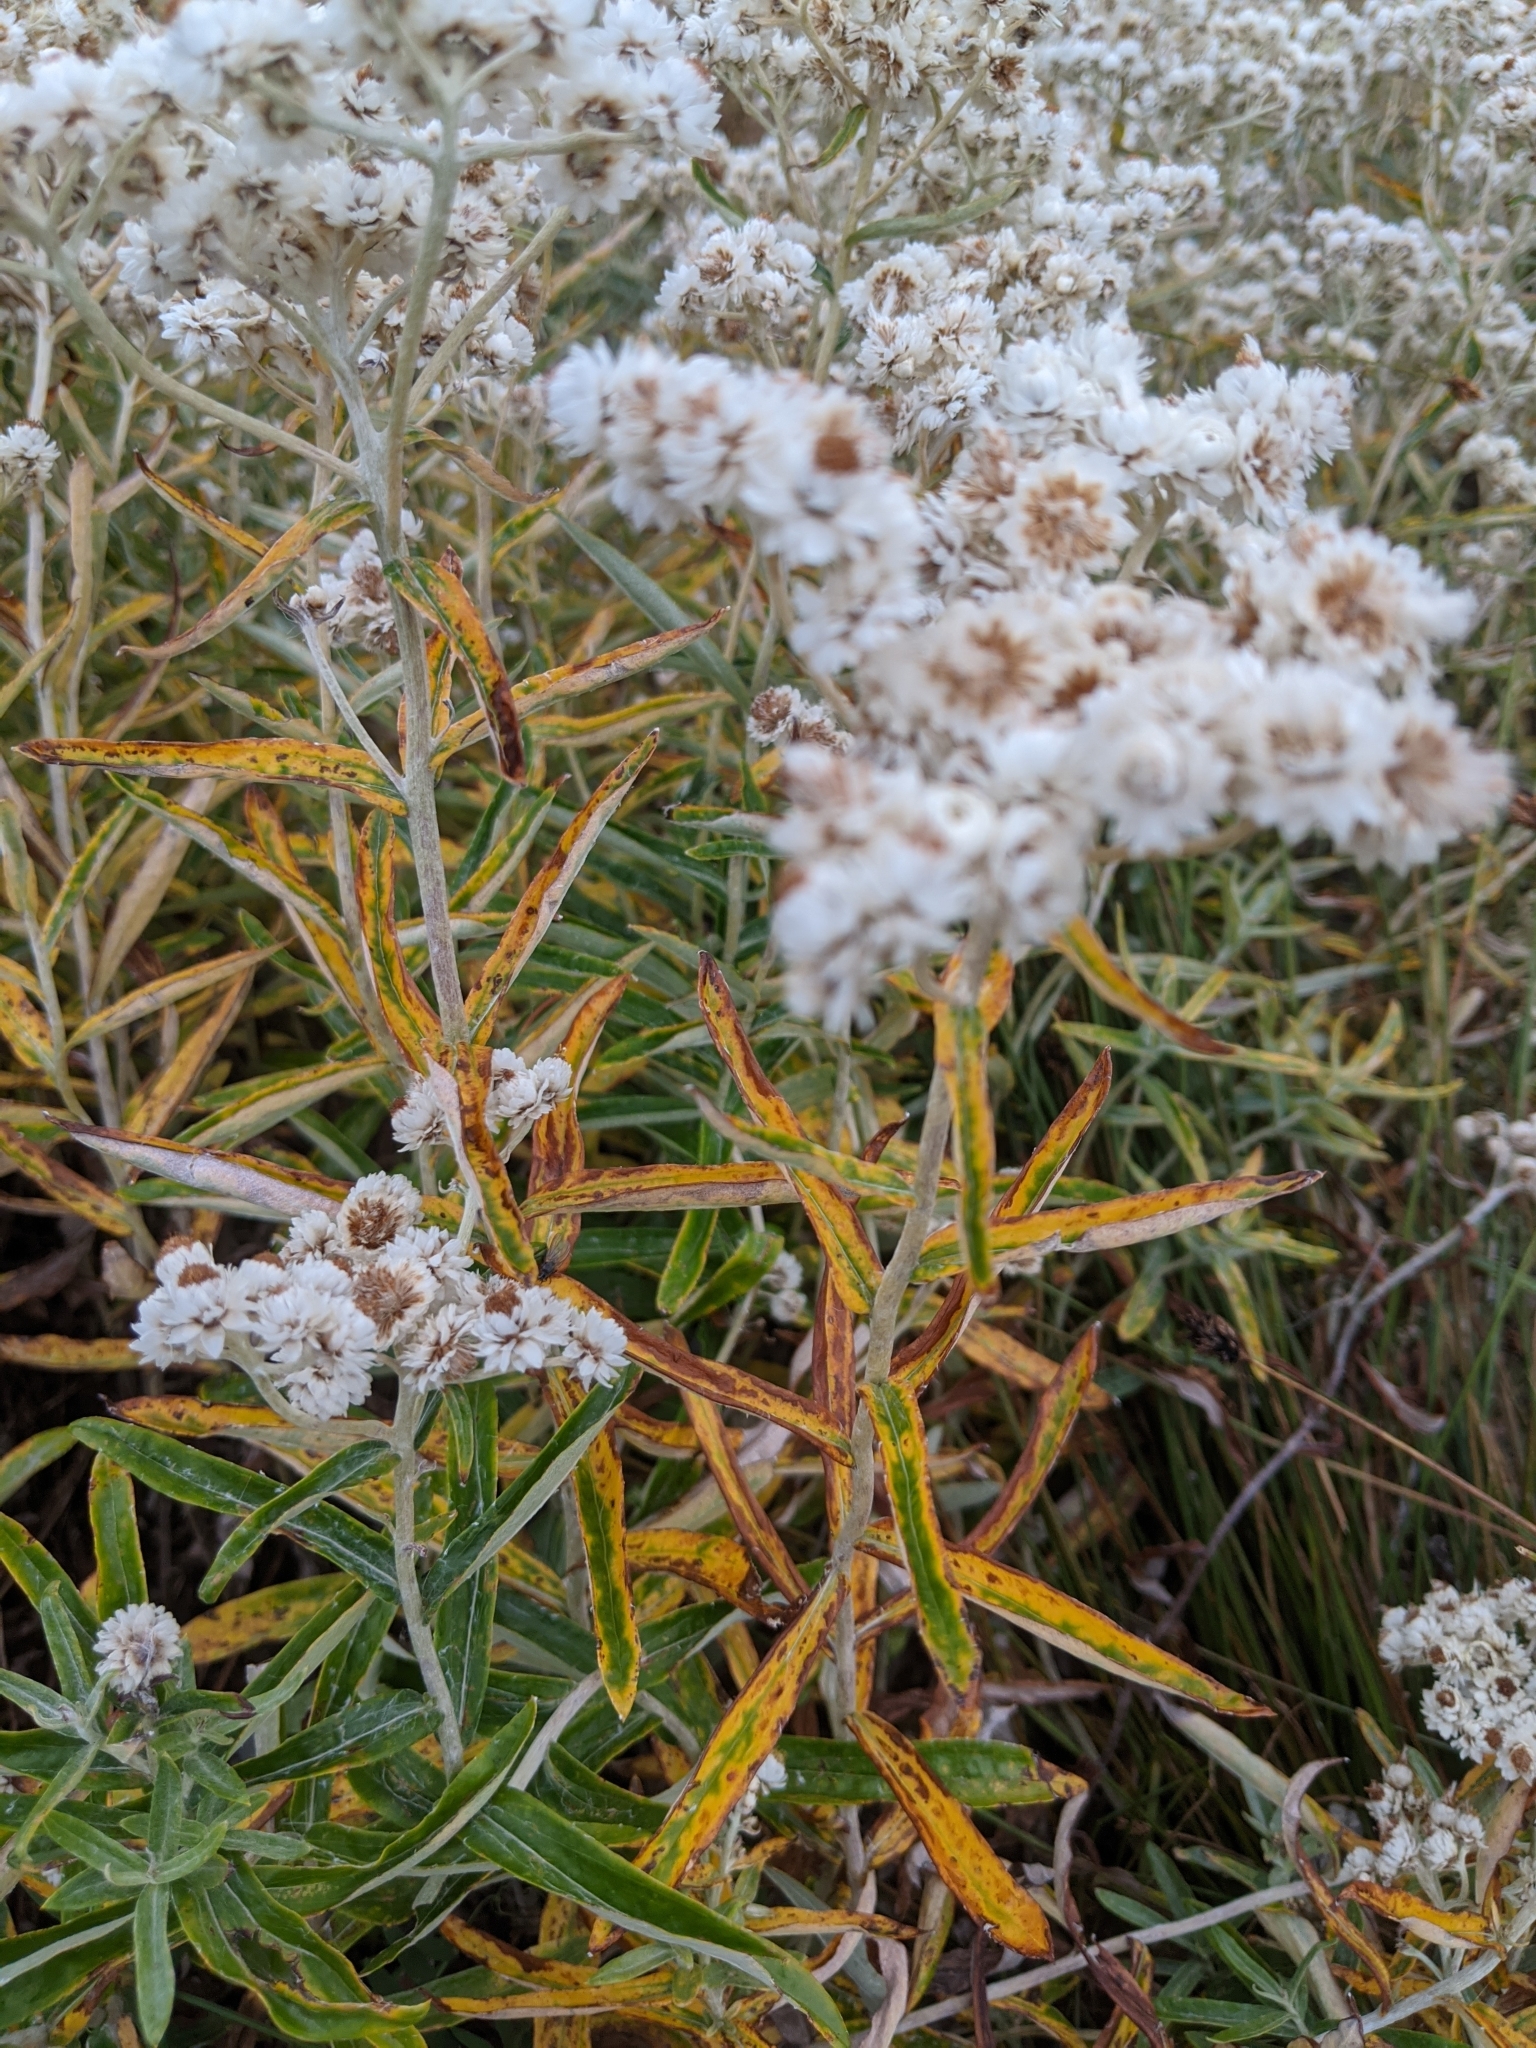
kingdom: Plantae
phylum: Tracheophyta
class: Magnoliopsida
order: Asterales
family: Asteraceae
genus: Anaphalis
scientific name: Anaphalis margaritacea
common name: Pearly everlasting
